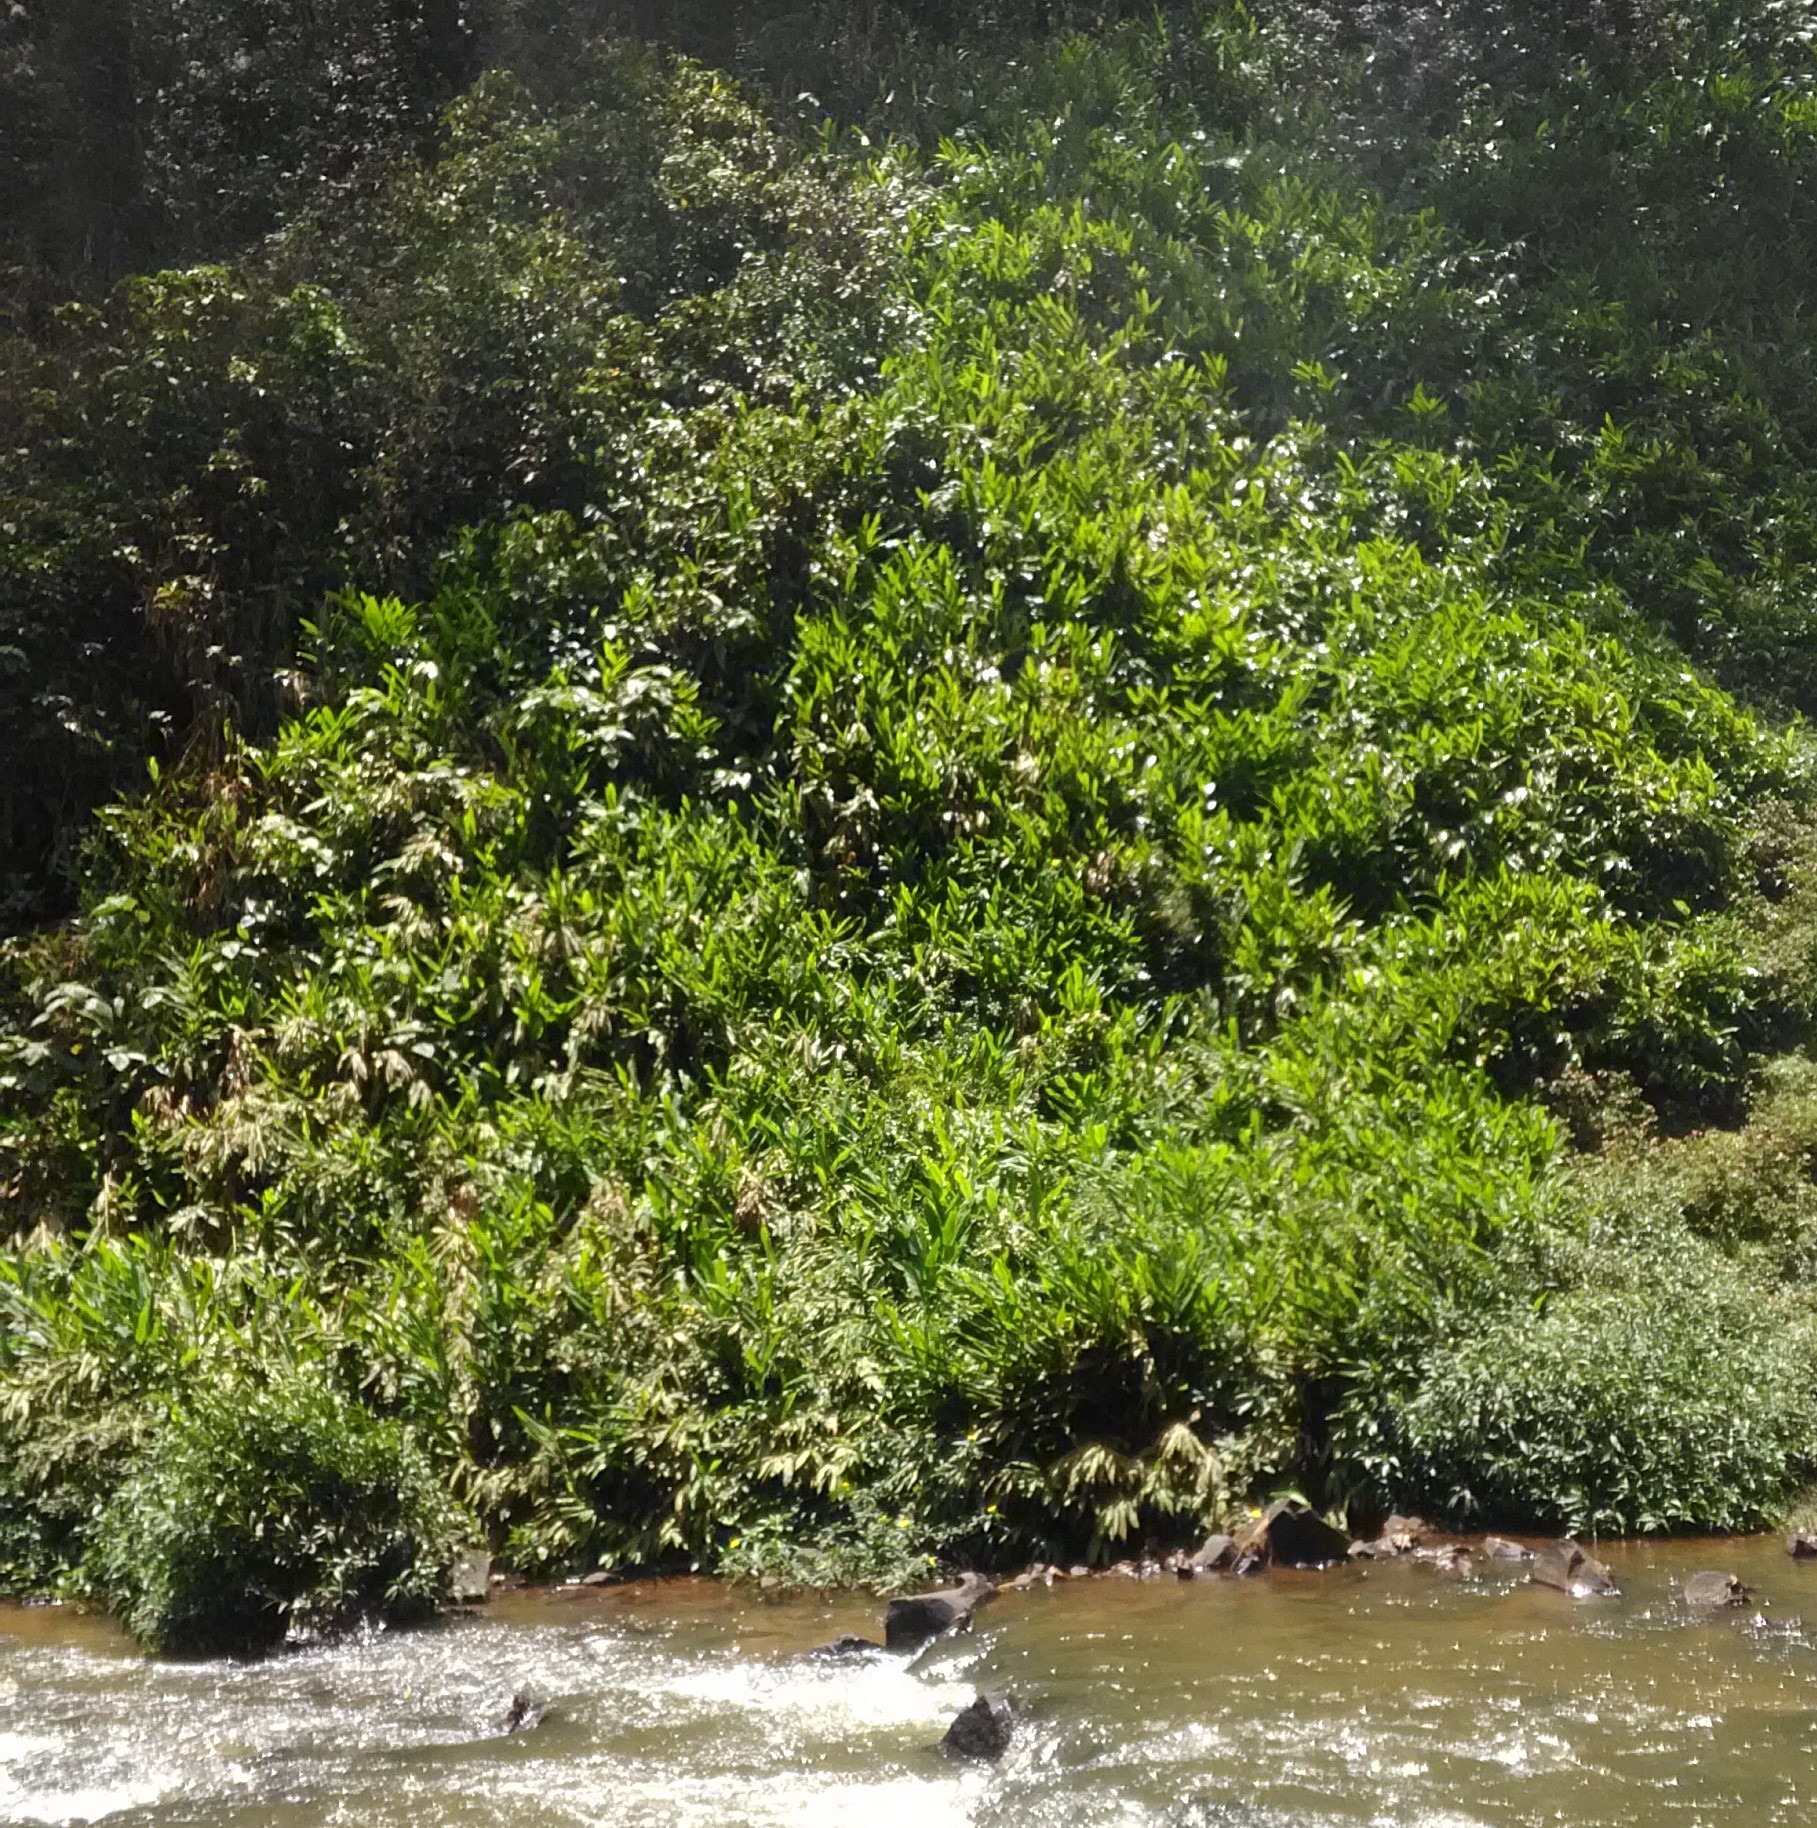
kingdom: Plantae
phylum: Tracheophyta
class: Liliopsida
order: Zingiberales
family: Zingiberaceae
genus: Hedychium
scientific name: Hedychium coronarium
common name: White garland-lily
